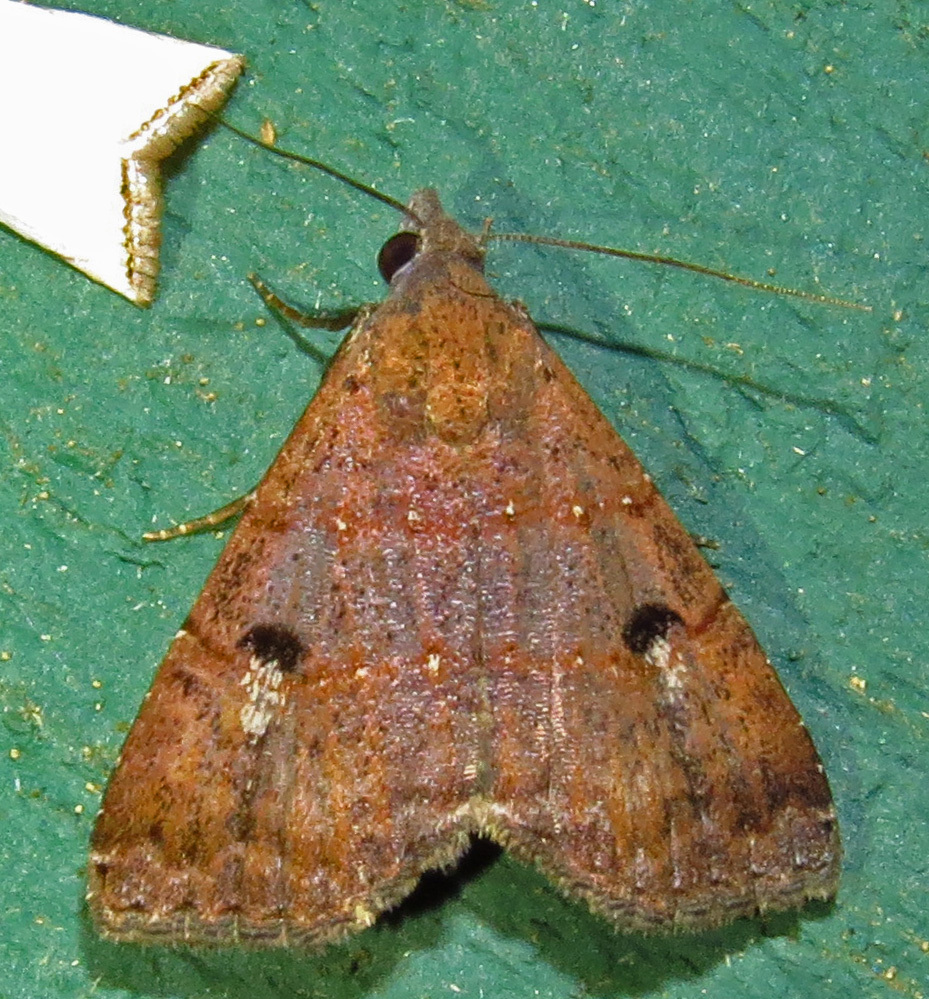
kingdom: Animalia
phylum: Arthropoda
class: Insecta
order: Lepidoptera
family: Noctuidae
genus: Hormoschista
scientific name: Hormoschista latipalpis
